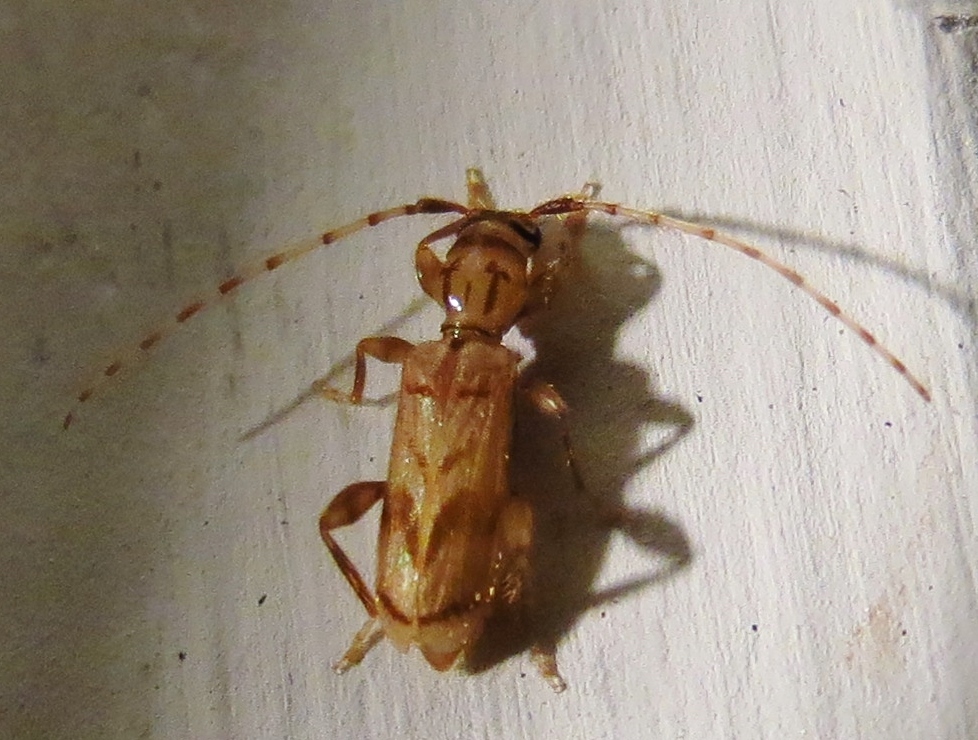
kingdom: Animalia
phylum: Arthropoda
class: Insecta
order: Coleoptera
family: Cerambycidae
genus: Obrium
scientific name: Obrium maculatum
